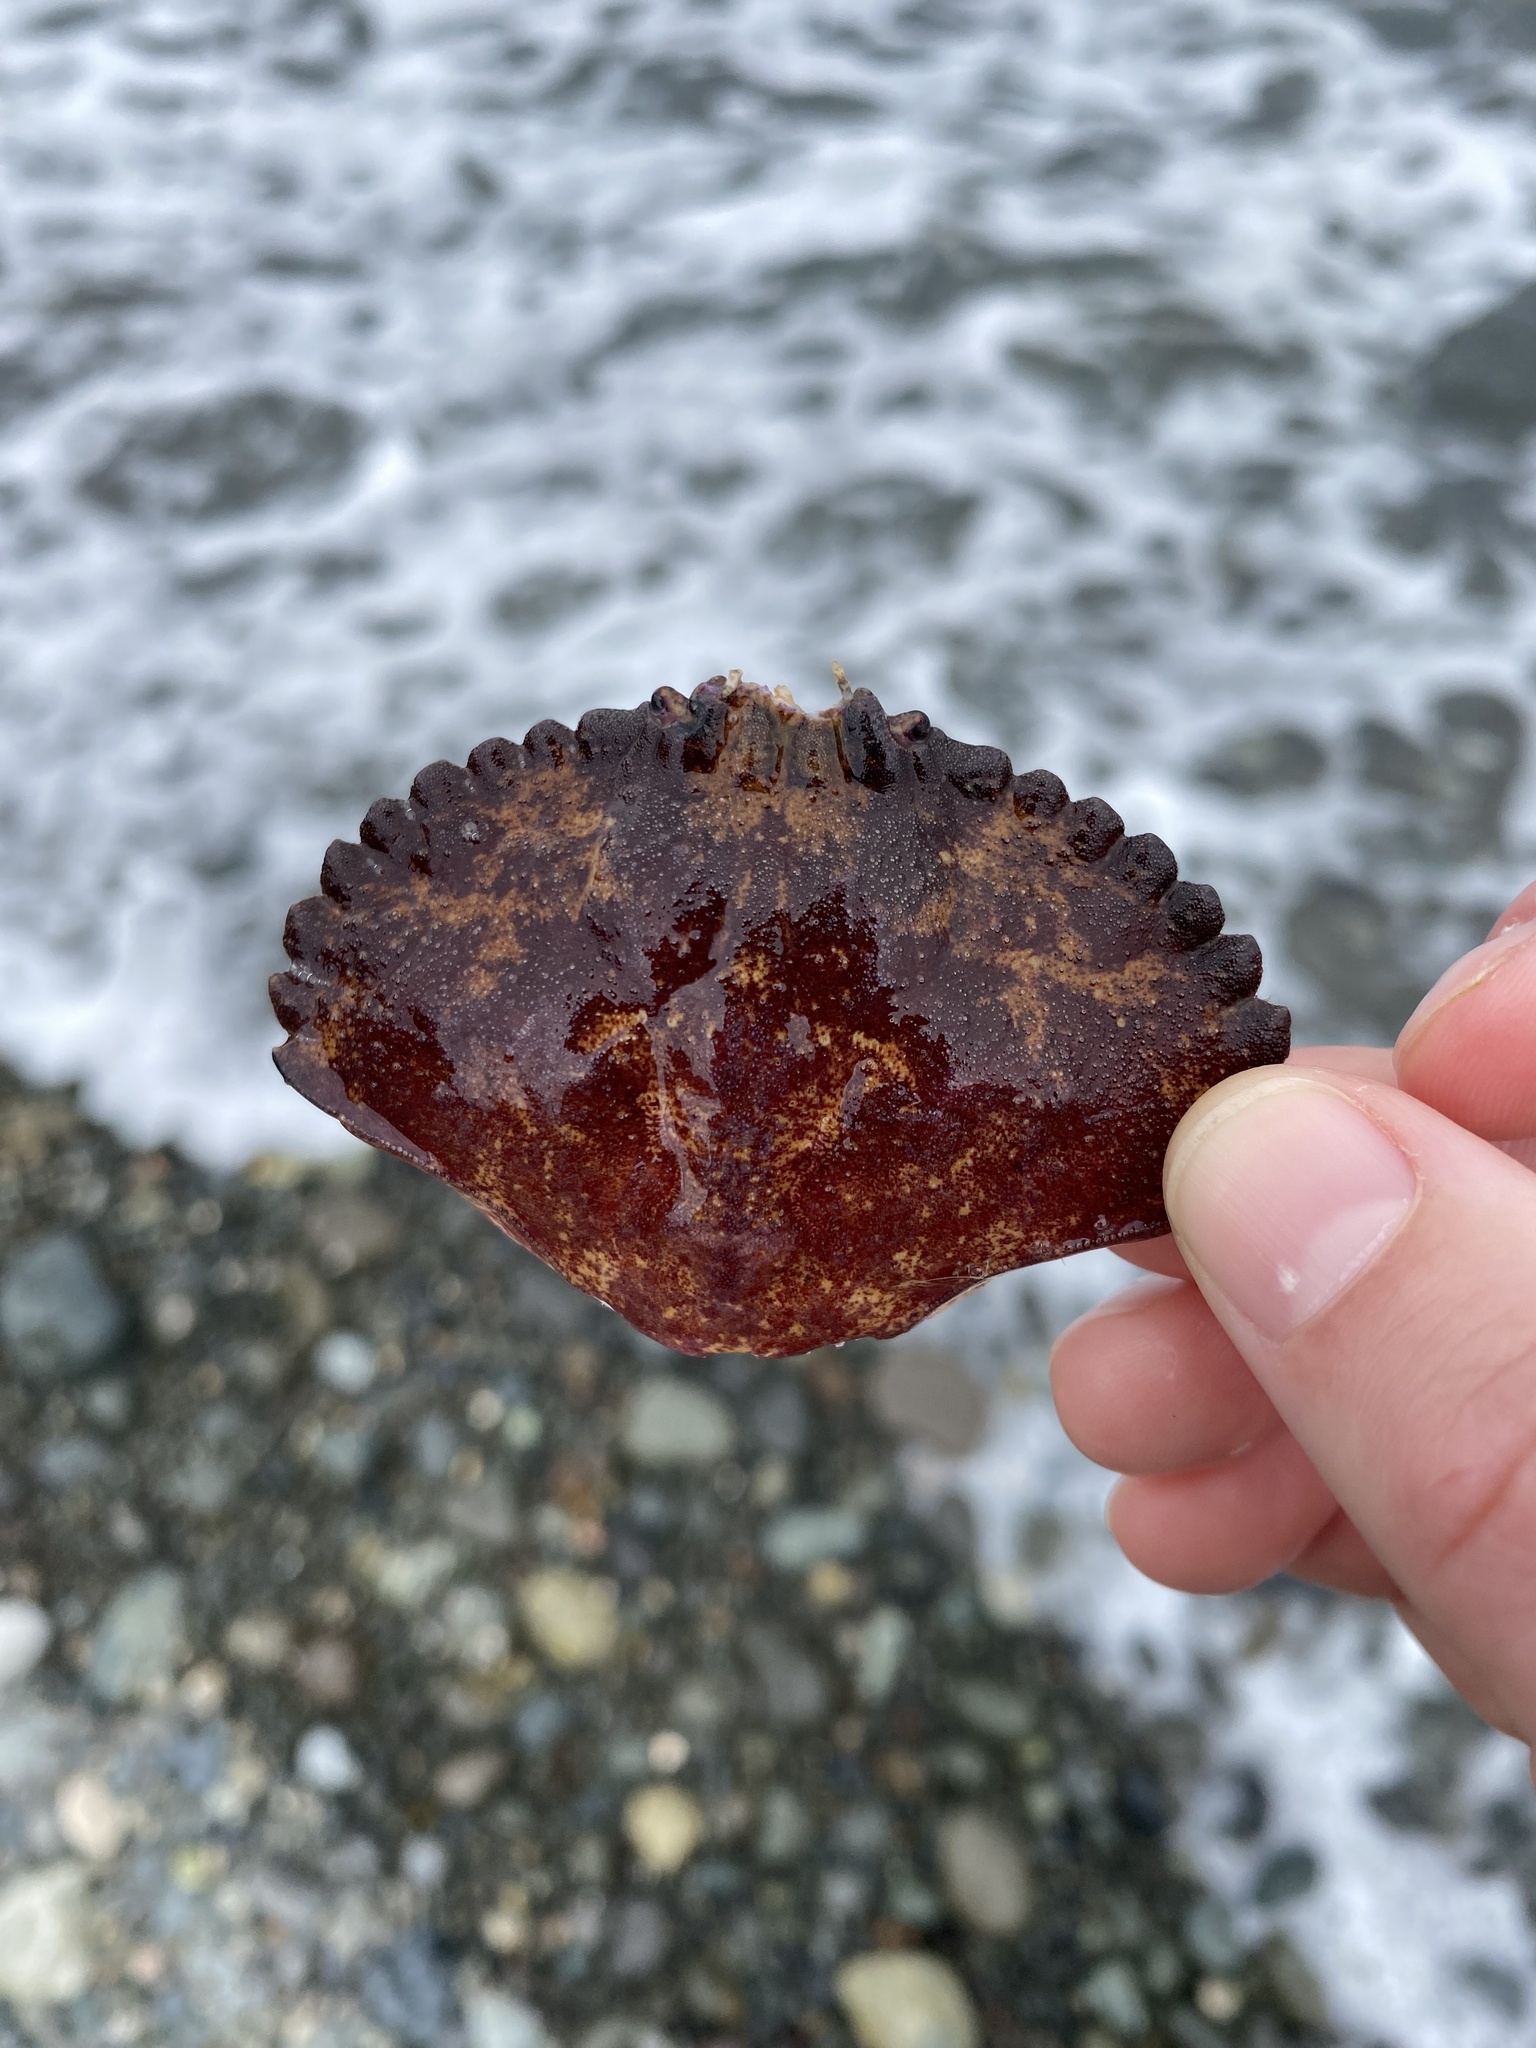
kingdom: Animalia
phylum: Arthropoda
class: Malacostraca
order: Decapoda
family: Cancridae
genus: Cancer
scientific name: Cancer productus
